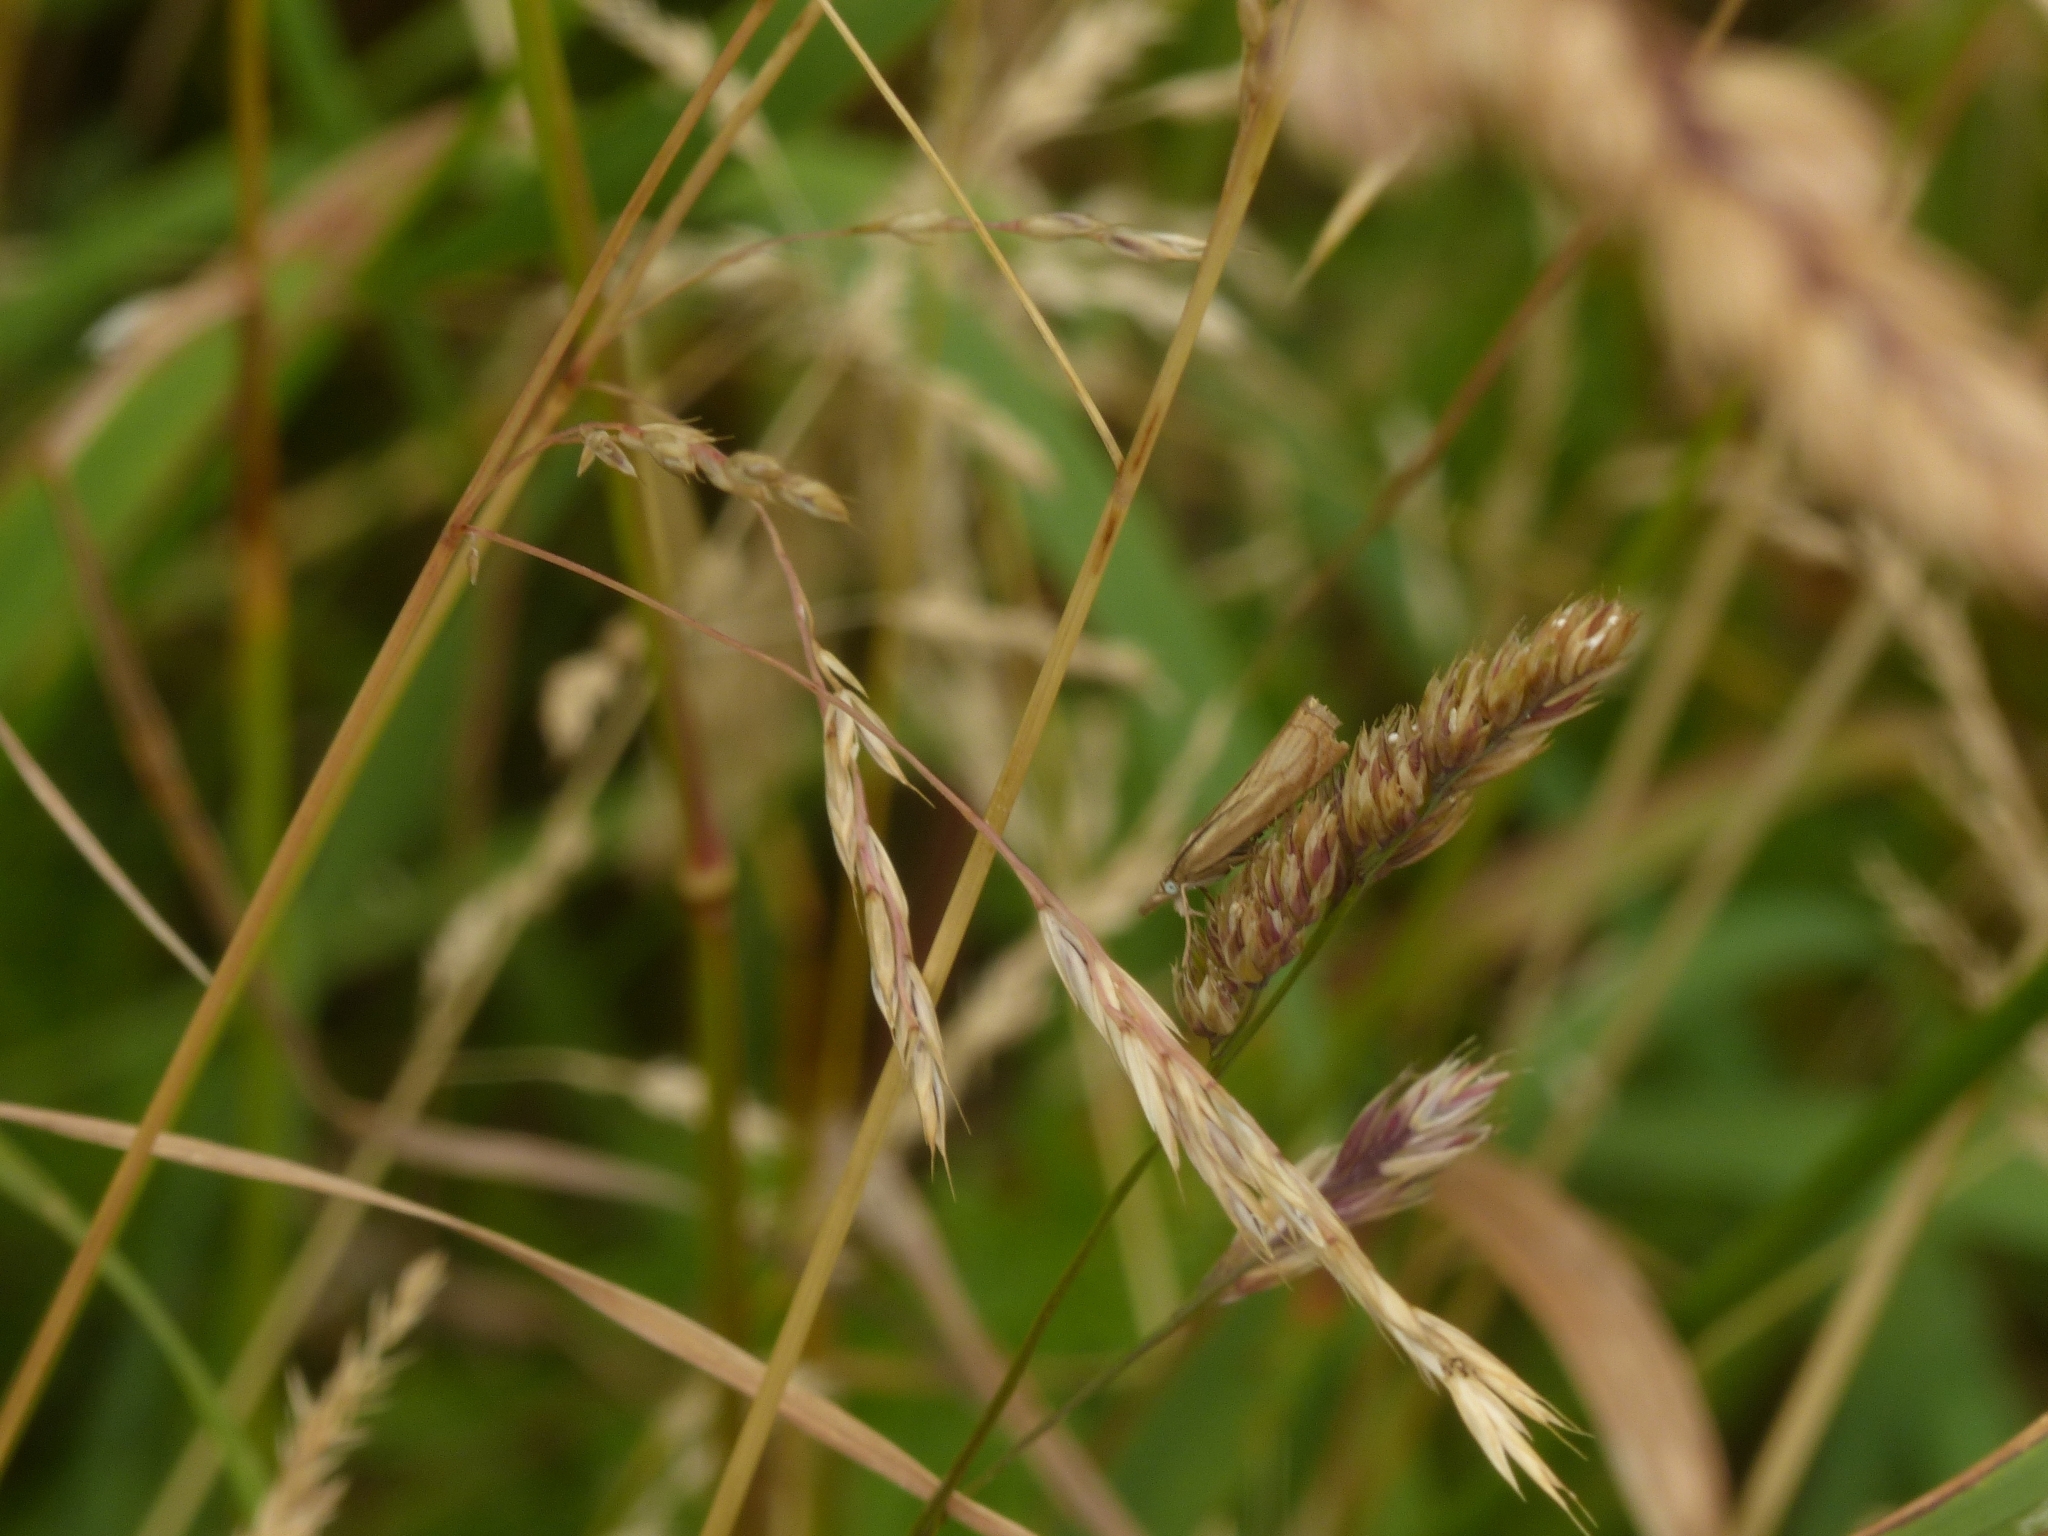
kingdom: Animalia
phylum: Arthropoda
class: Insecta
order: Lepidoptera
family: Crambidae
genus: Chrysoteuchia
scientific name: Chrysoteuchia culmella
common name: Garden grass-veneer
